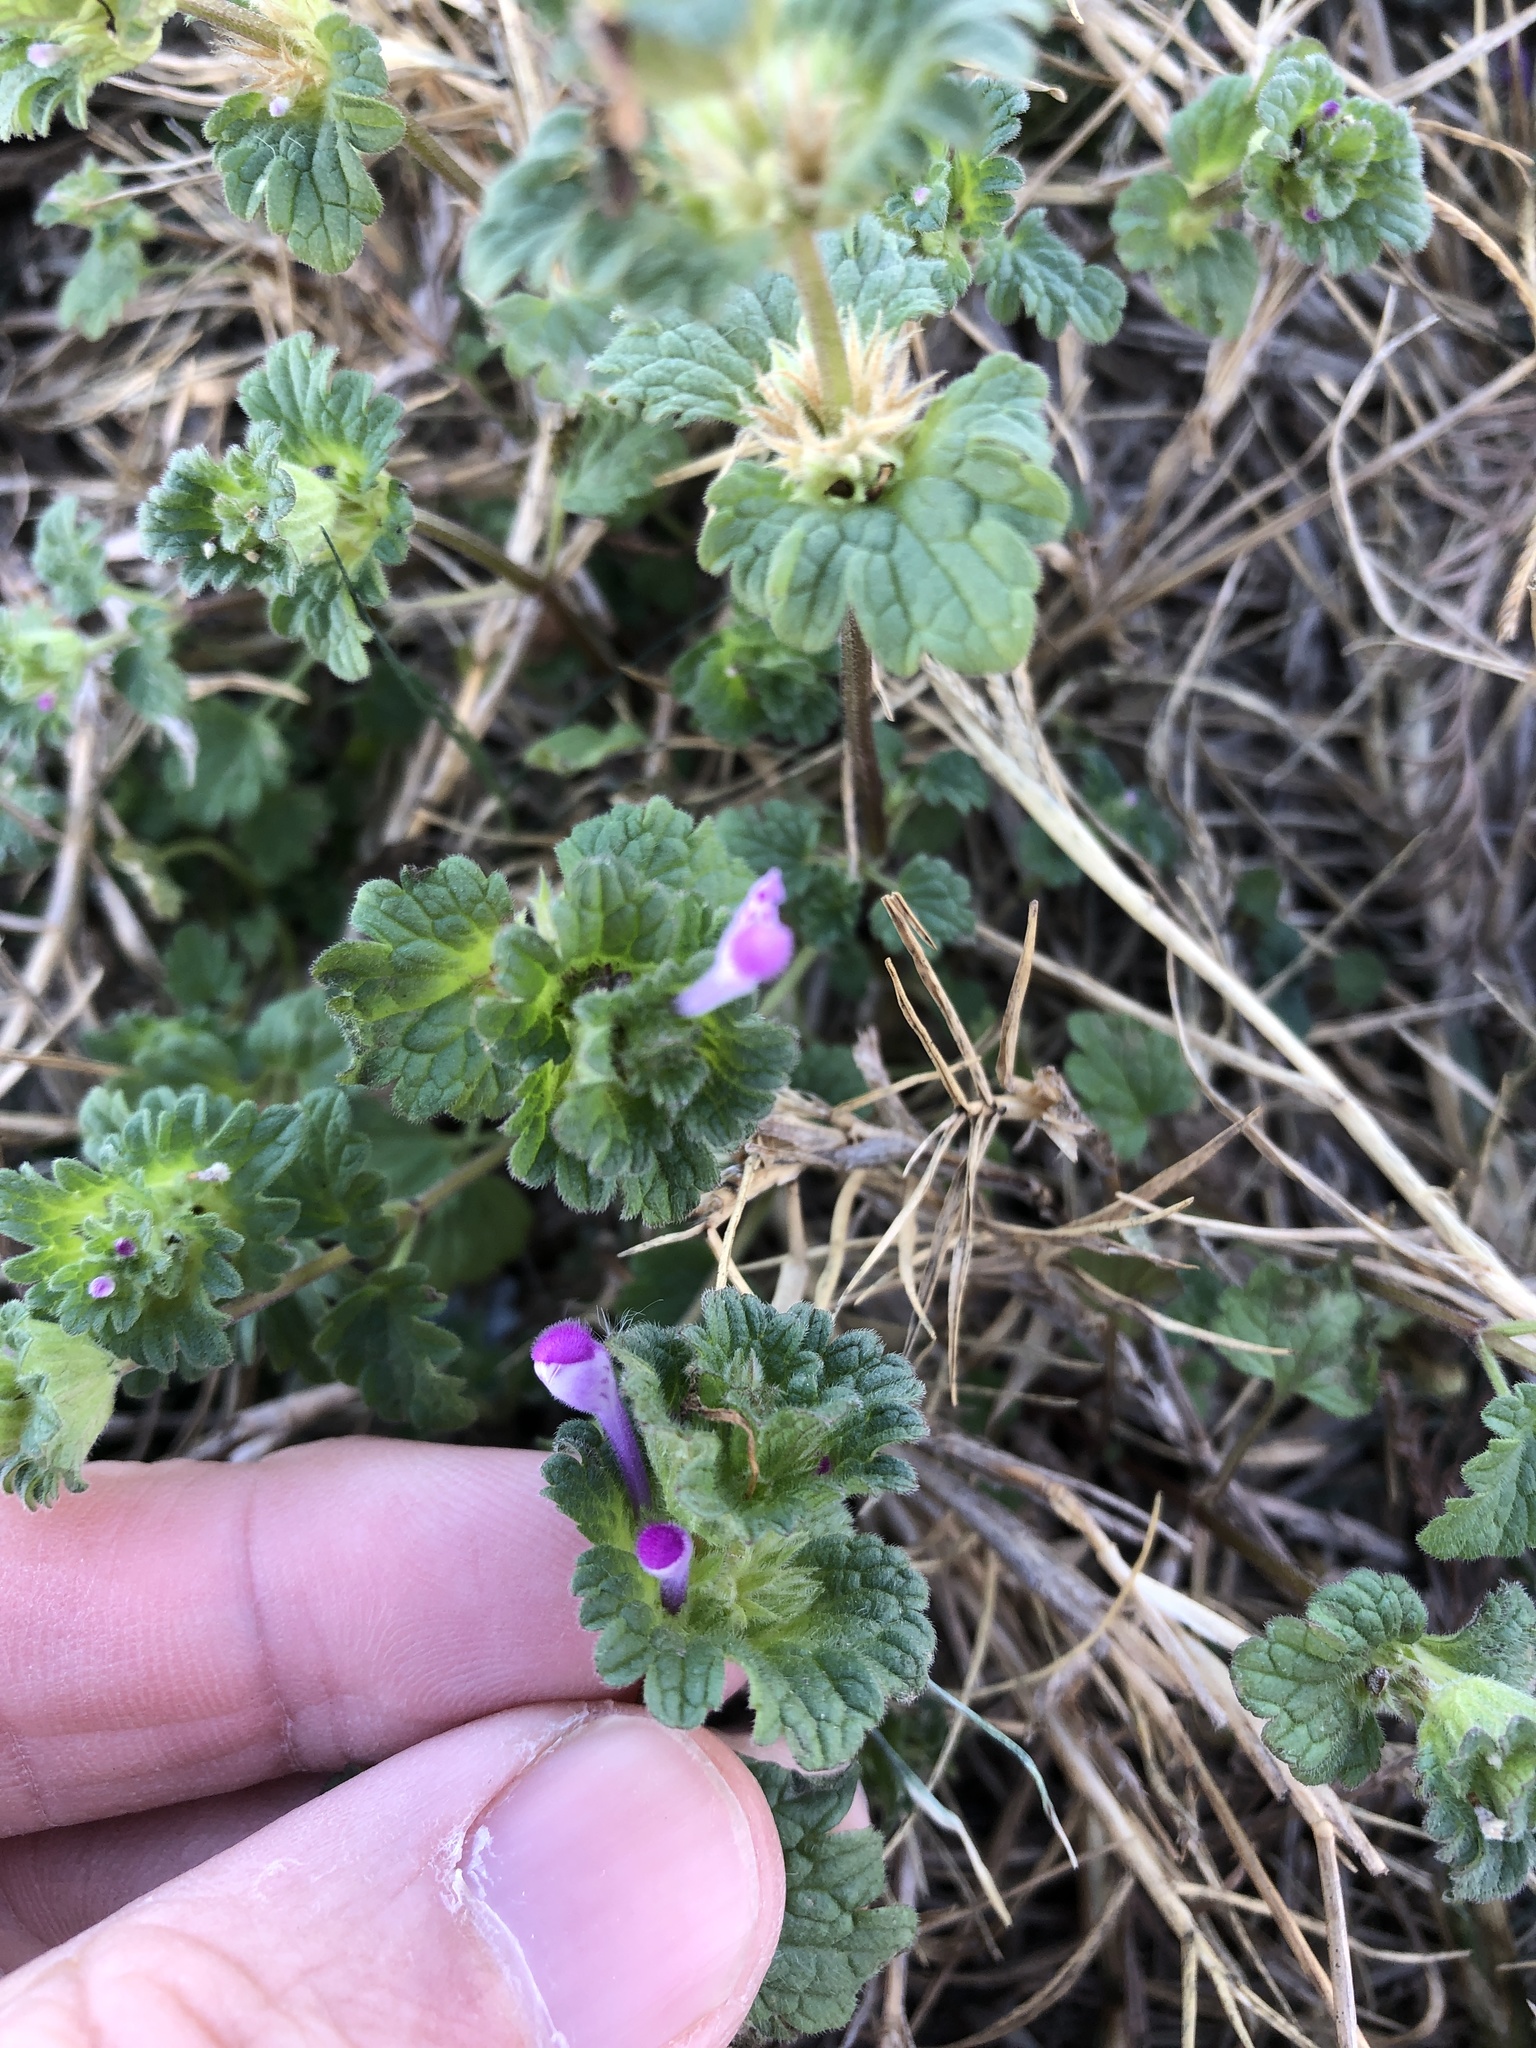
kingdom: Plantae
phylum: Tracheophyta
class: Magnoliopsida
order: Lamiales
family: Lamiaceae
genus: Lamium
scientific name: Lamium amplexicaule
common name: Henbit dead-nettle
